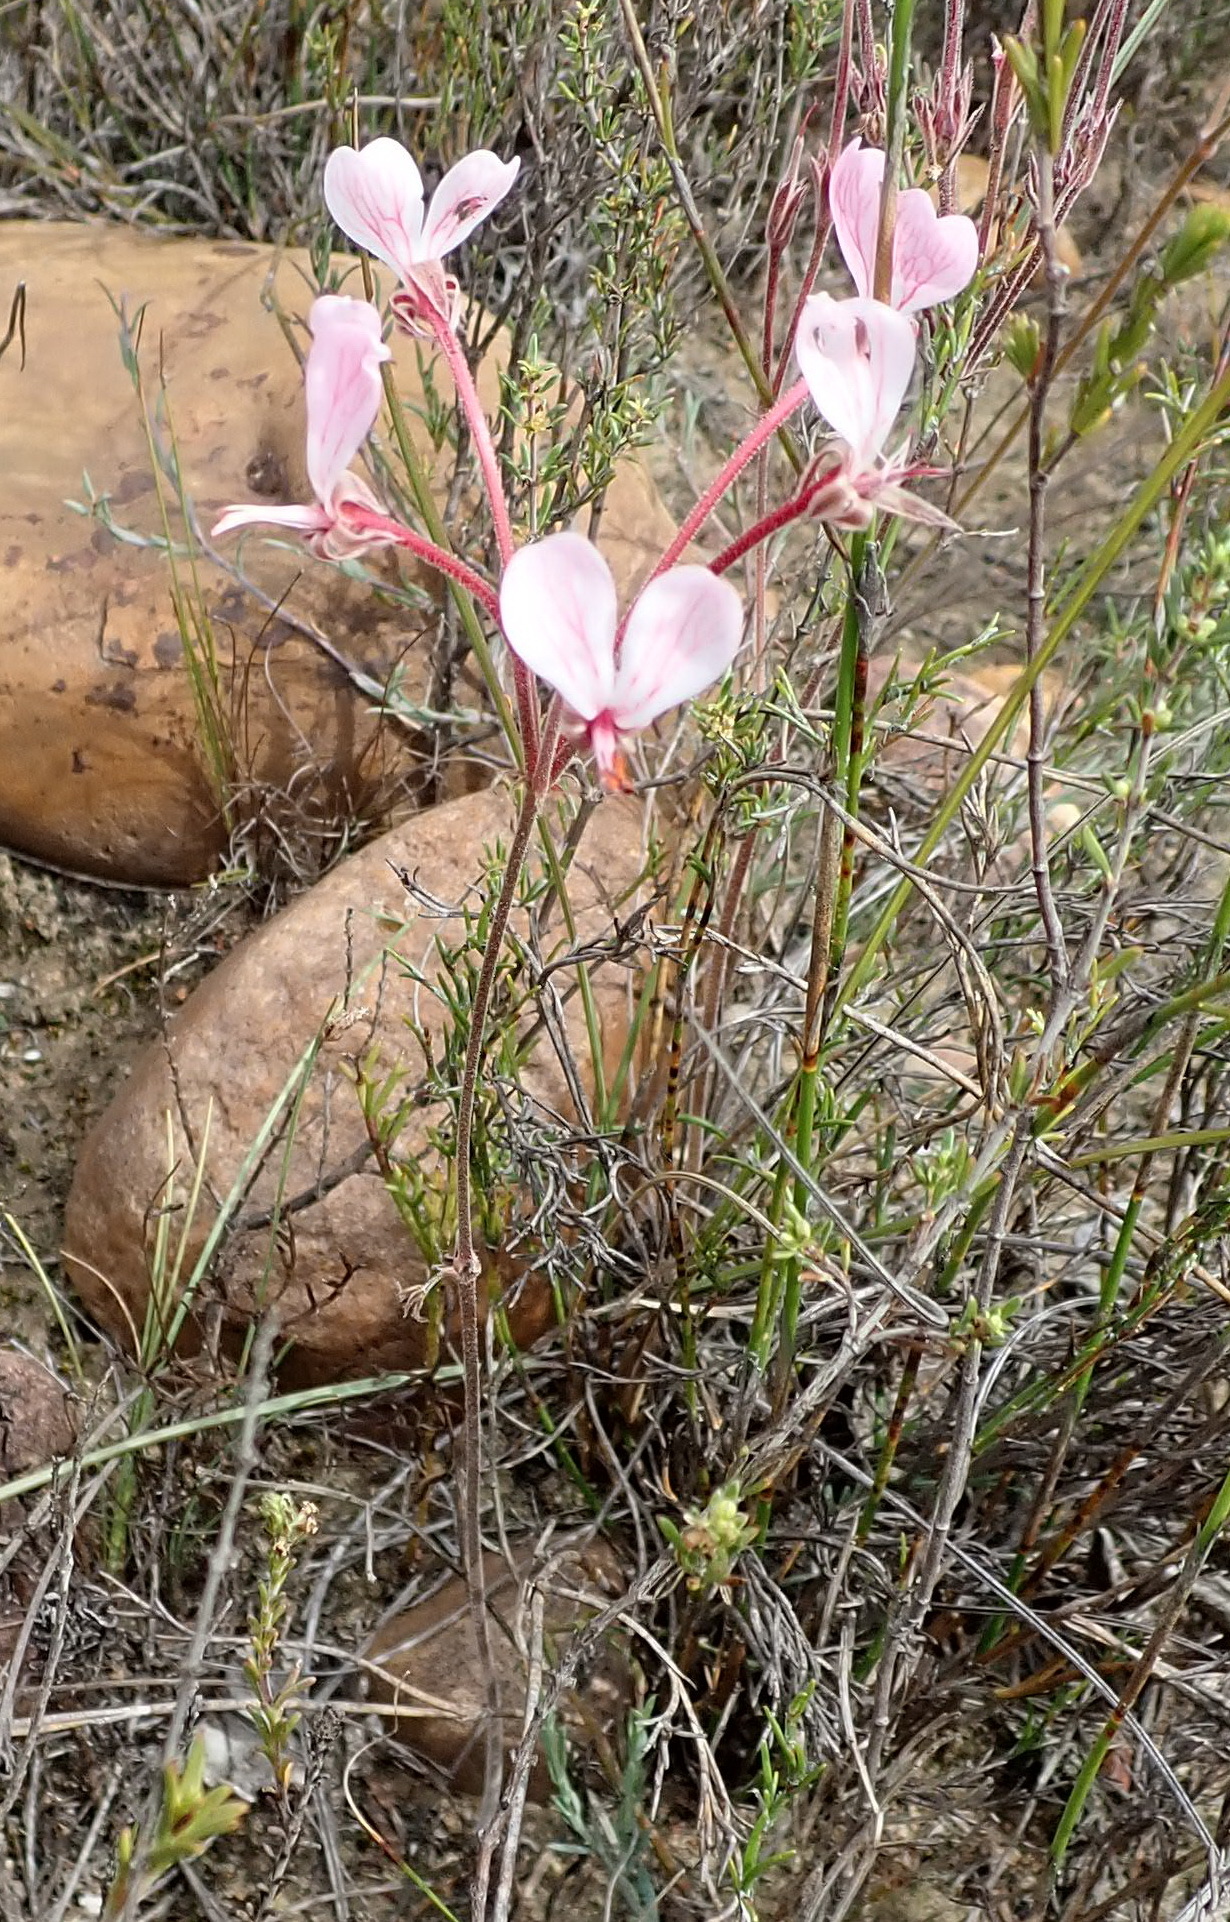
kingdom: Plantae
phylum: Tracheophyta
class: Magnoliopsida
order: Geraniales
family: Geraniaceae
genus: Pelargonium
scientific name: Pelargonium dipetalum
